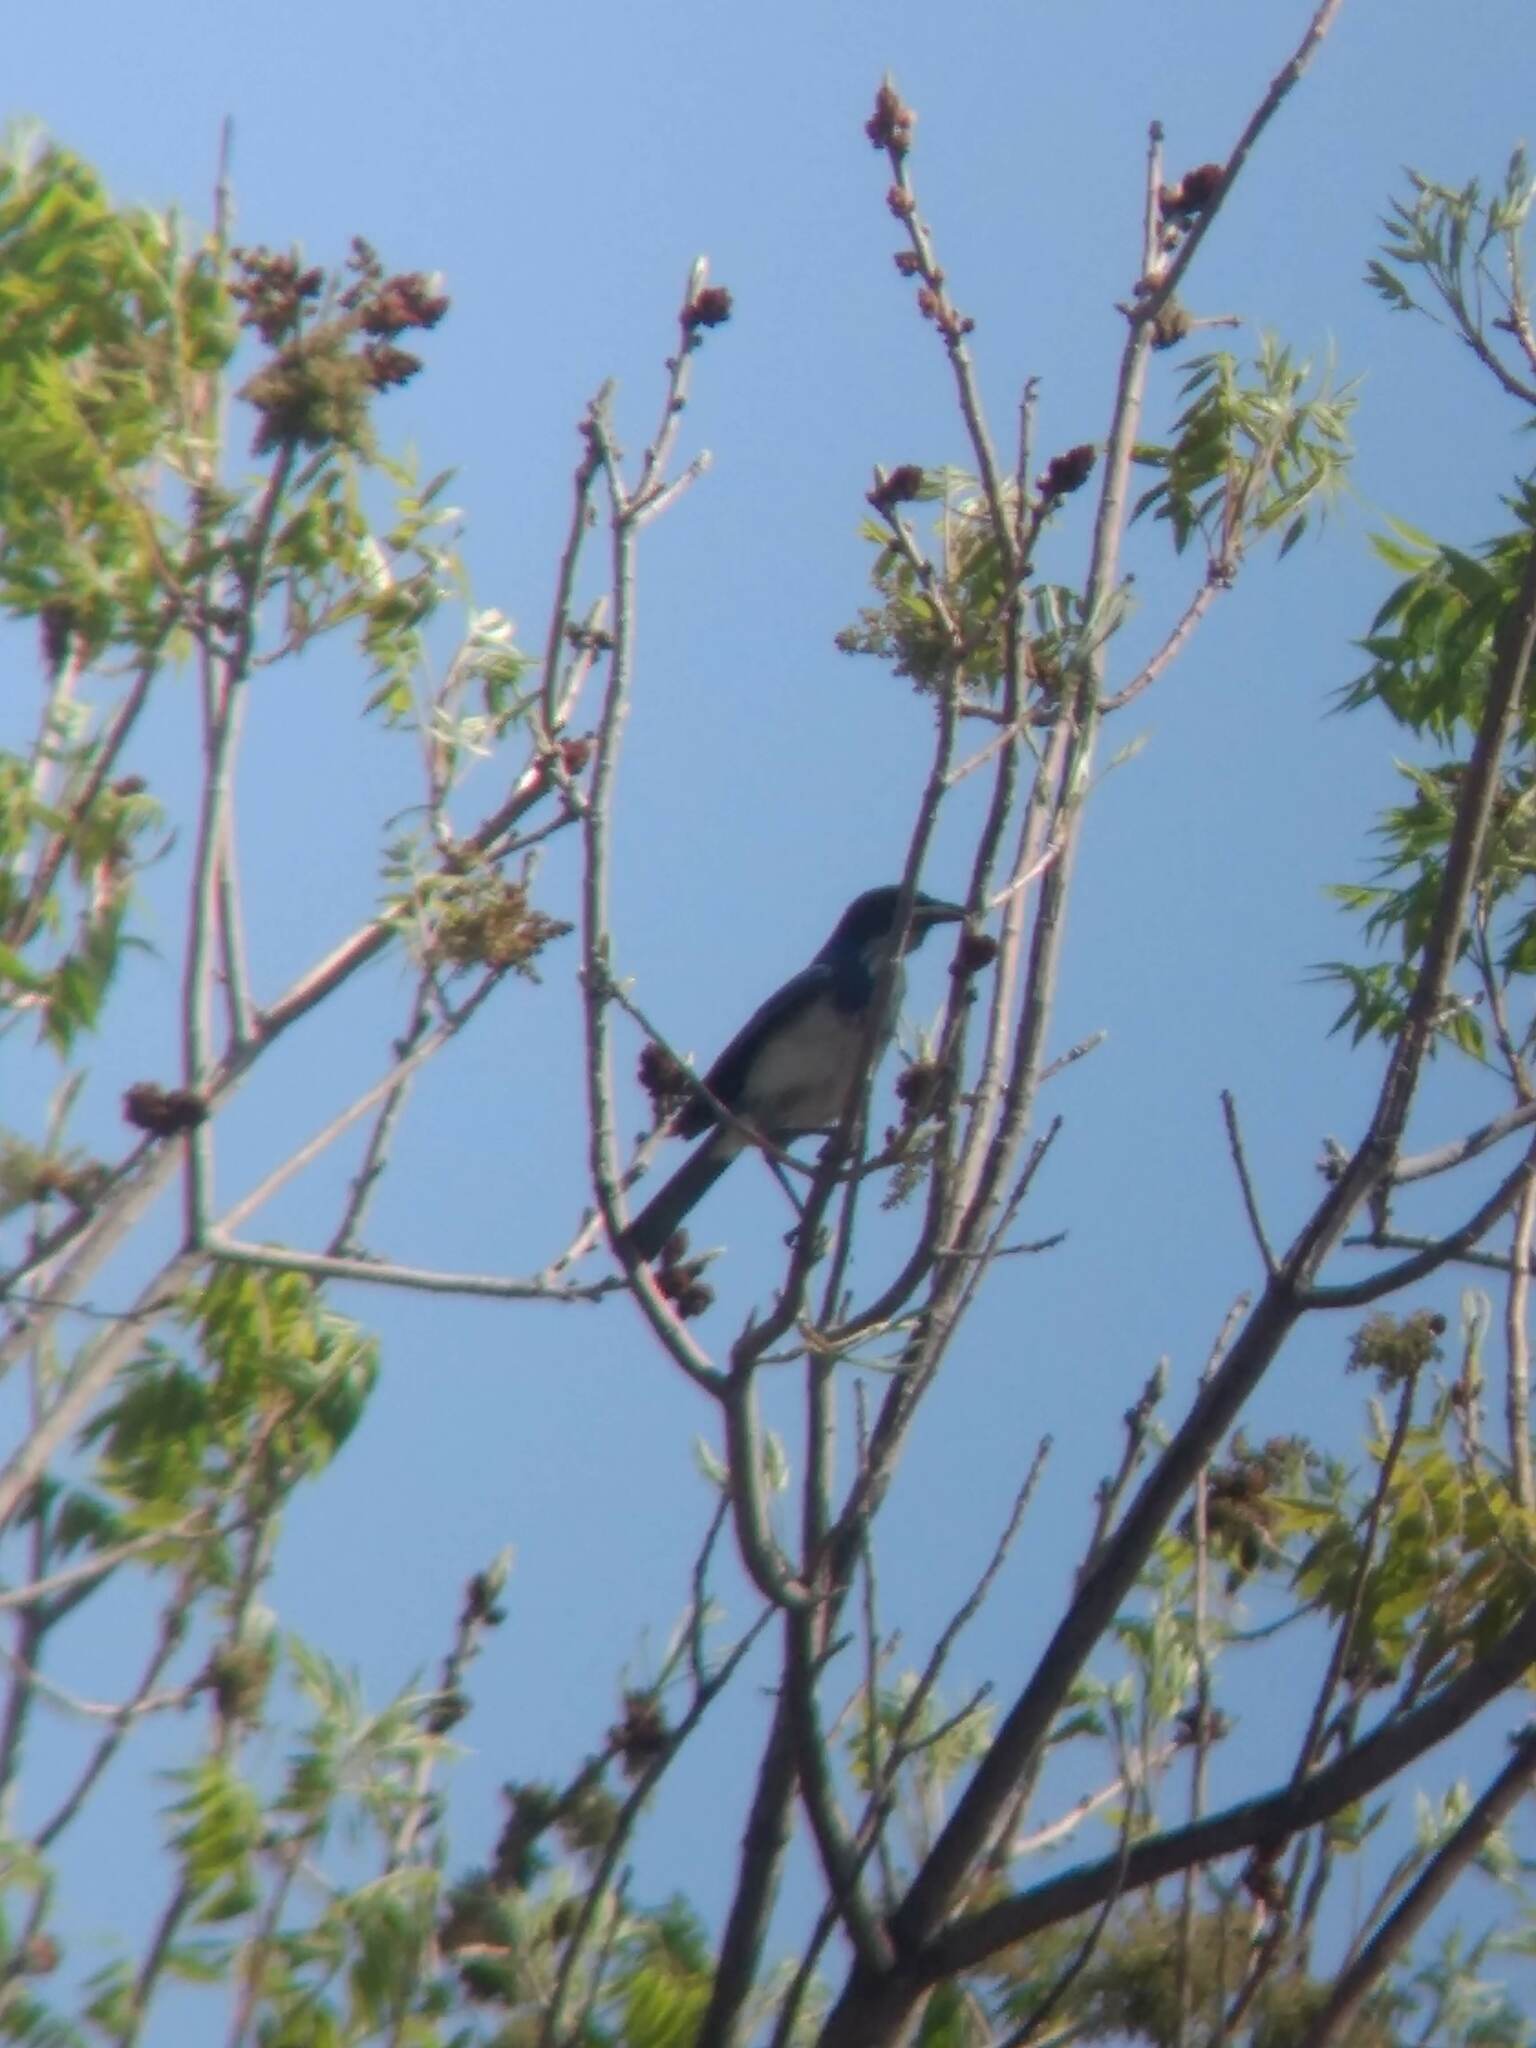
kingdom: Animalia
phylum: Chordata
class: Aves
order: Passeriformes
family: Corvidae
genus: Aphelocoma
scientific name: Aphelocoma californica
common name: California scrub-jay
